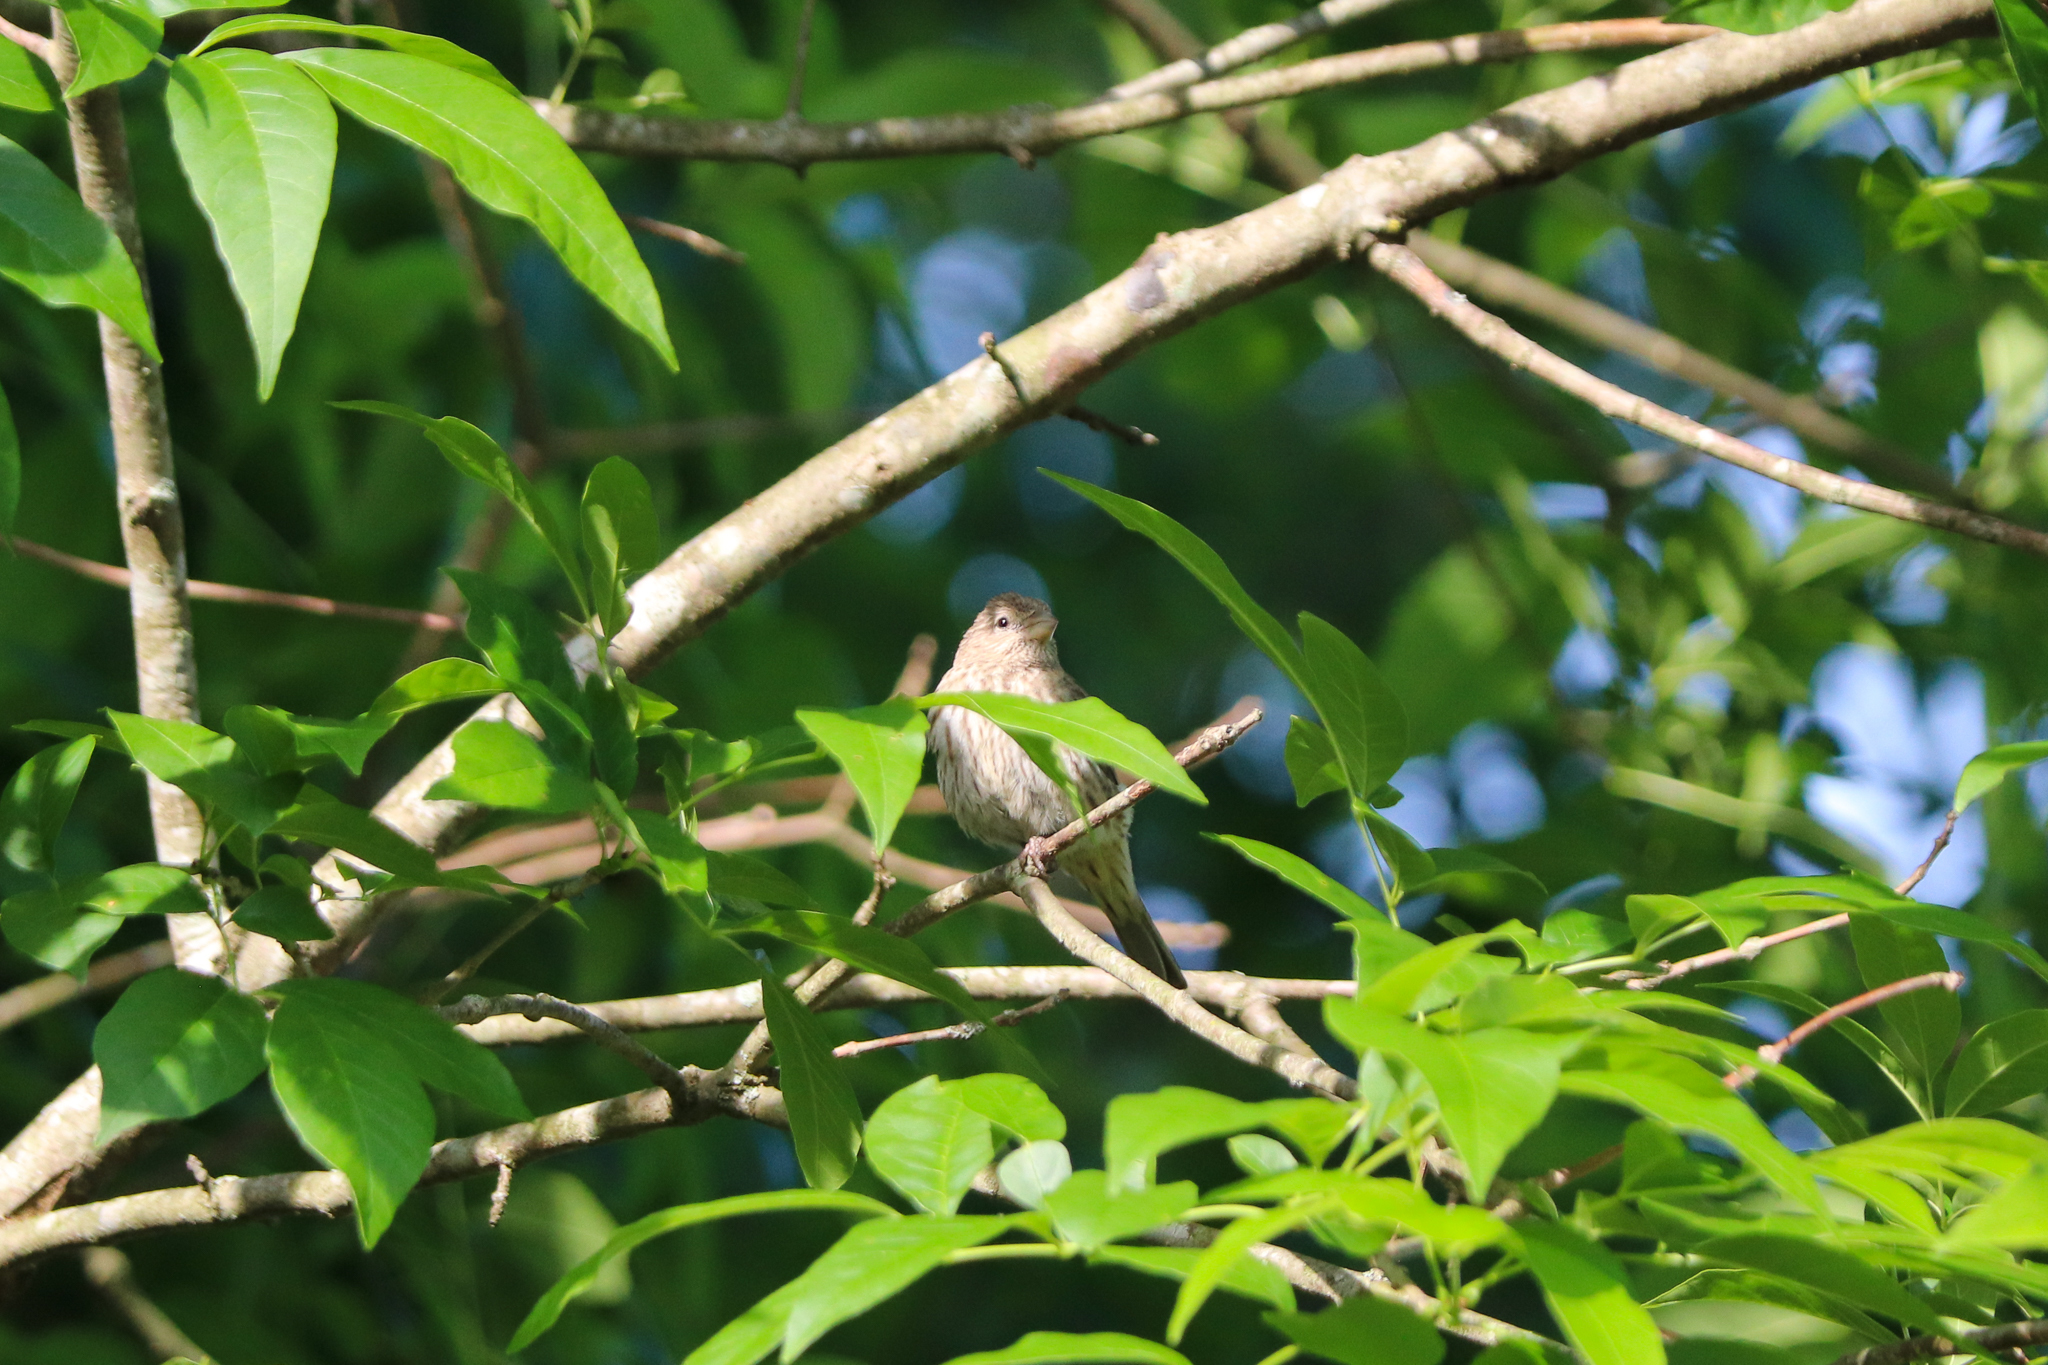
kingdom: Animalia
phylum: Chordata
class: Aves
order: Passeriformes
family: Fringillidae
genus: Haemorhous
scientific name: Haemorhous mexicanus
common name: House finch
